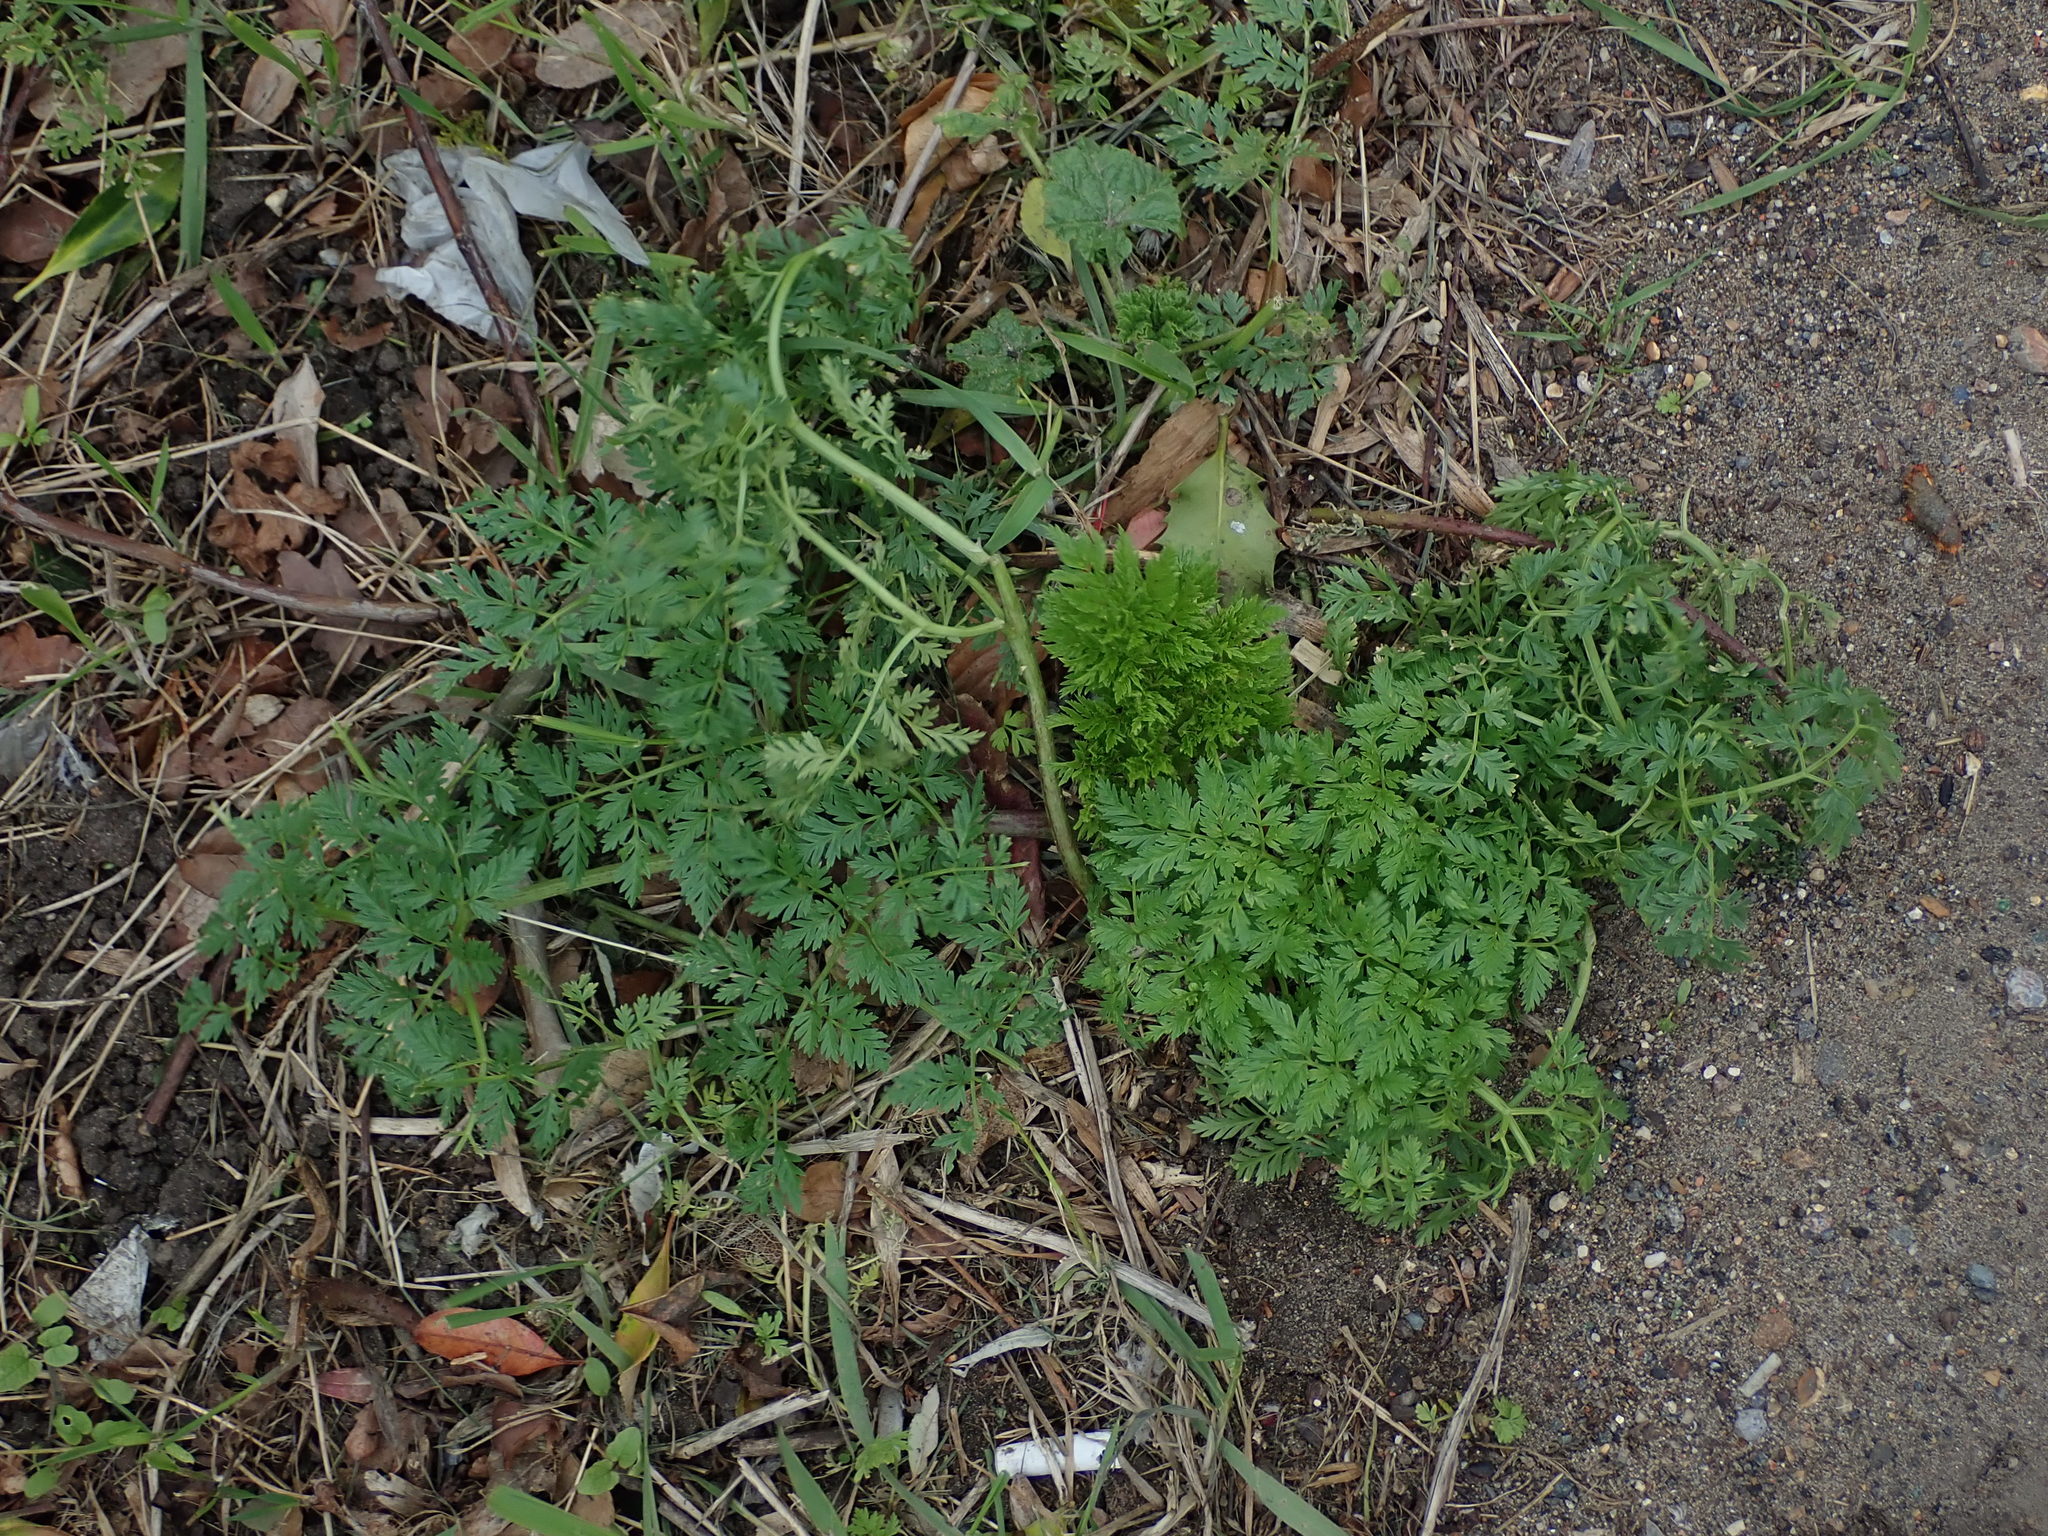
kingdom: Plantae
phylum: Tracheophyta
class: Magnoliopsida
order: Apiales
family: Apiaceae
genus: Conium
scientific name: Conium maculatum
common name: Hemlock
